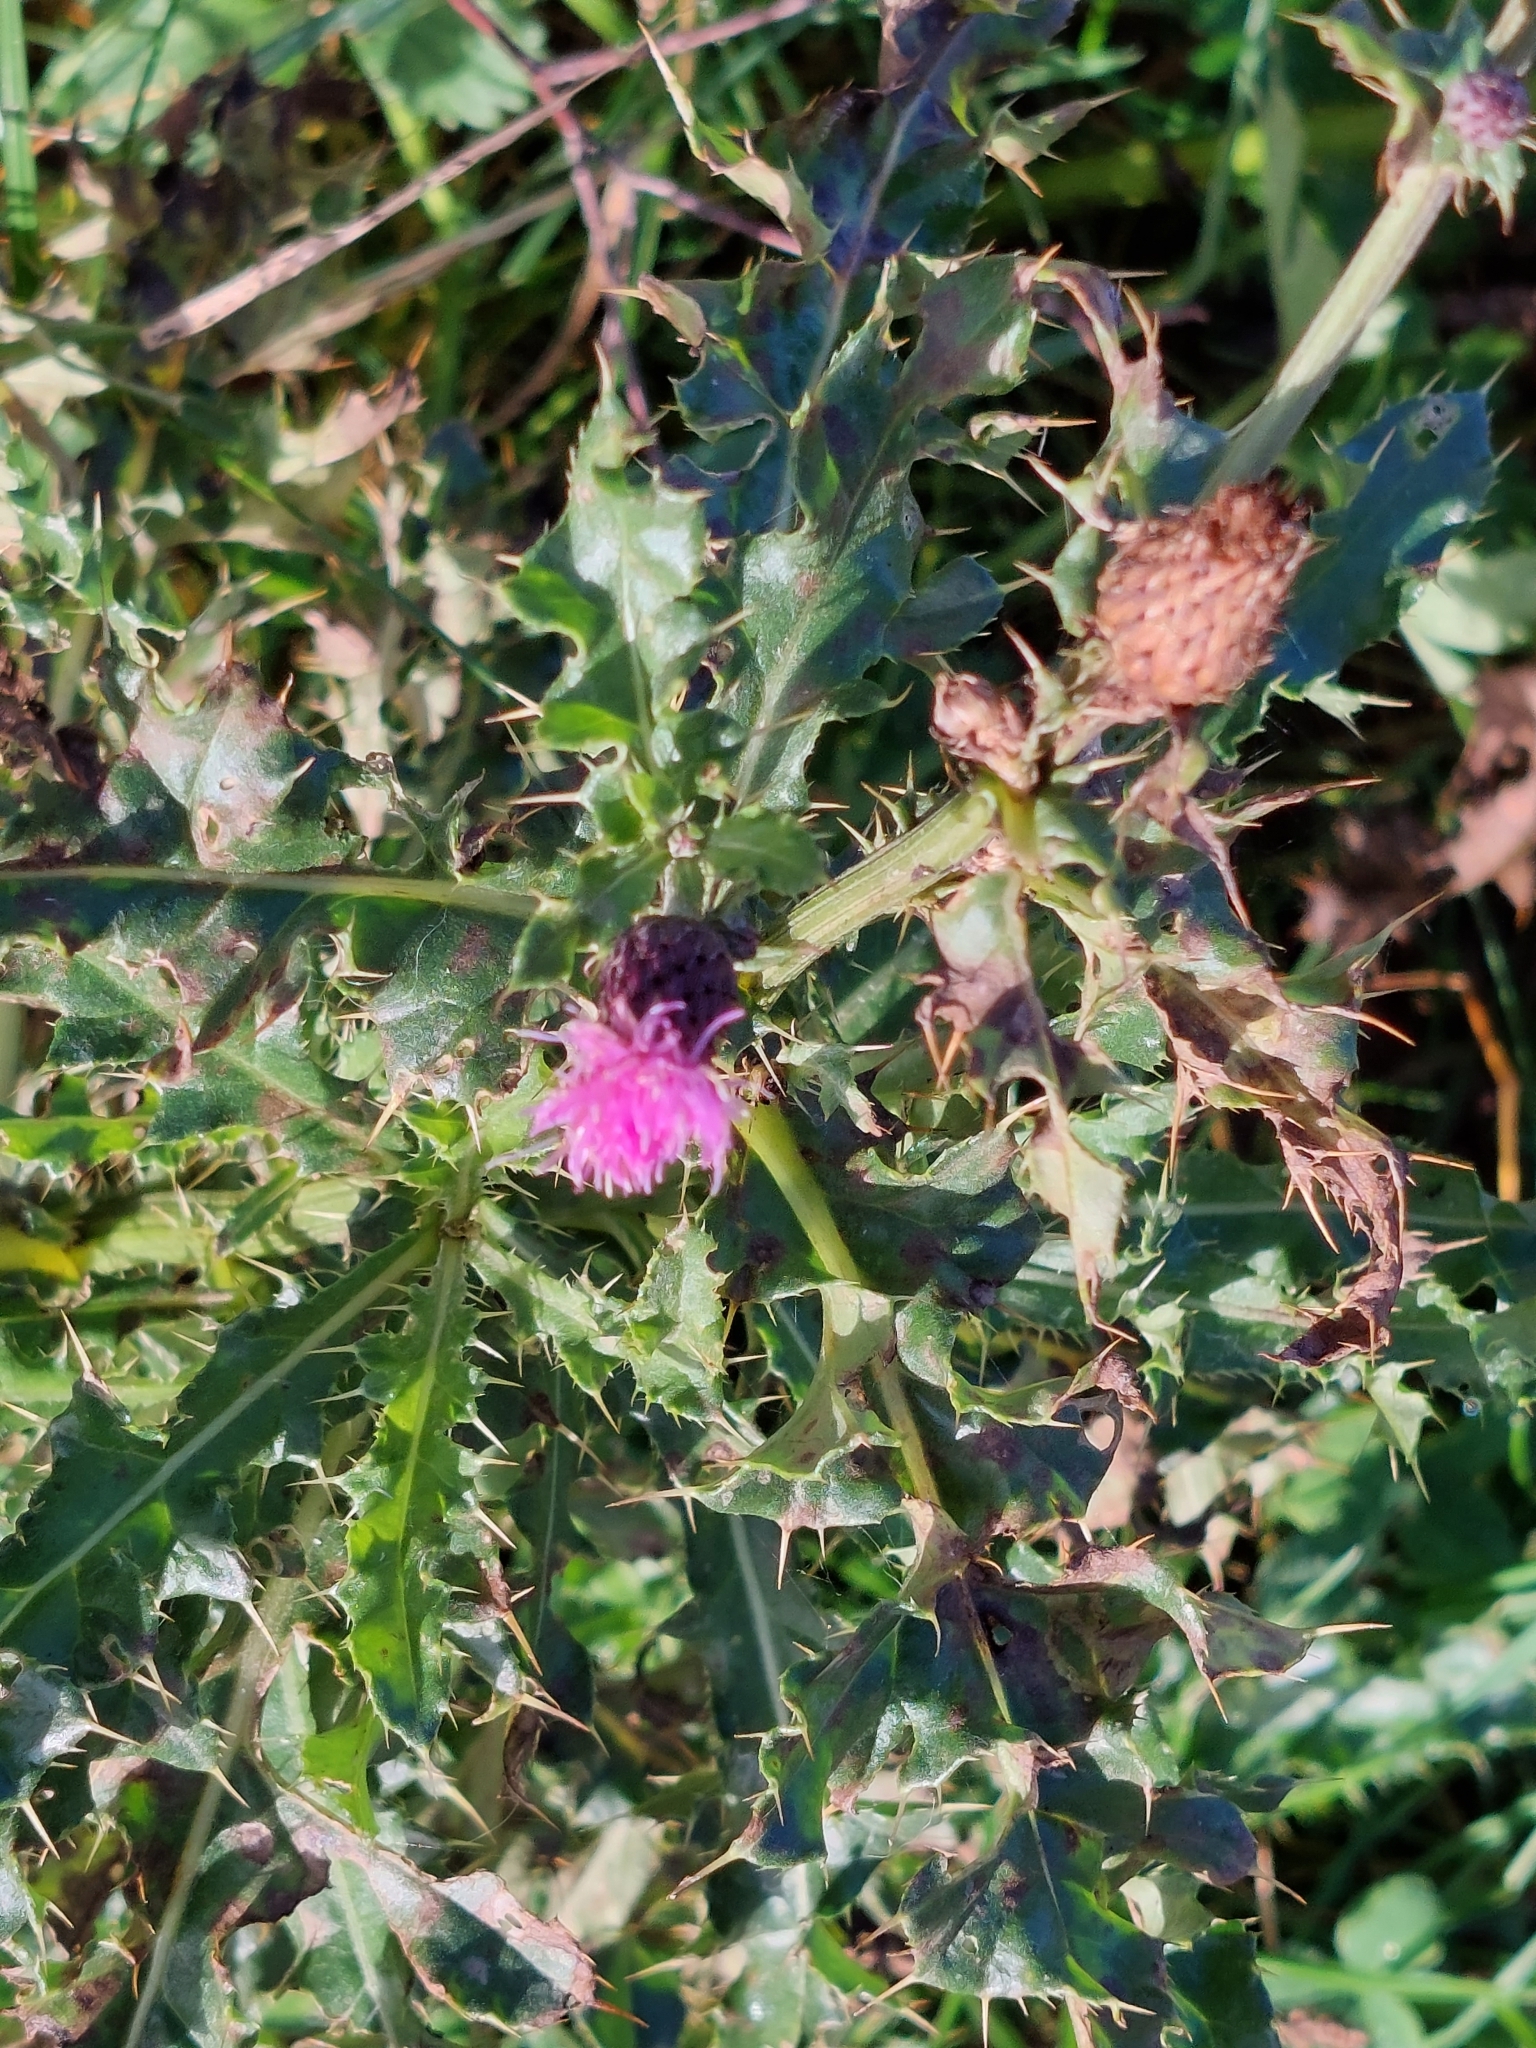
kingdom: Plantae
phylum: Tracheophyta
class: Magnoliopsida
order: Asterales
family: Asteraceae
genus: Cirsium
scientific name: Cirsium arvense
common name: Creeping thistle
